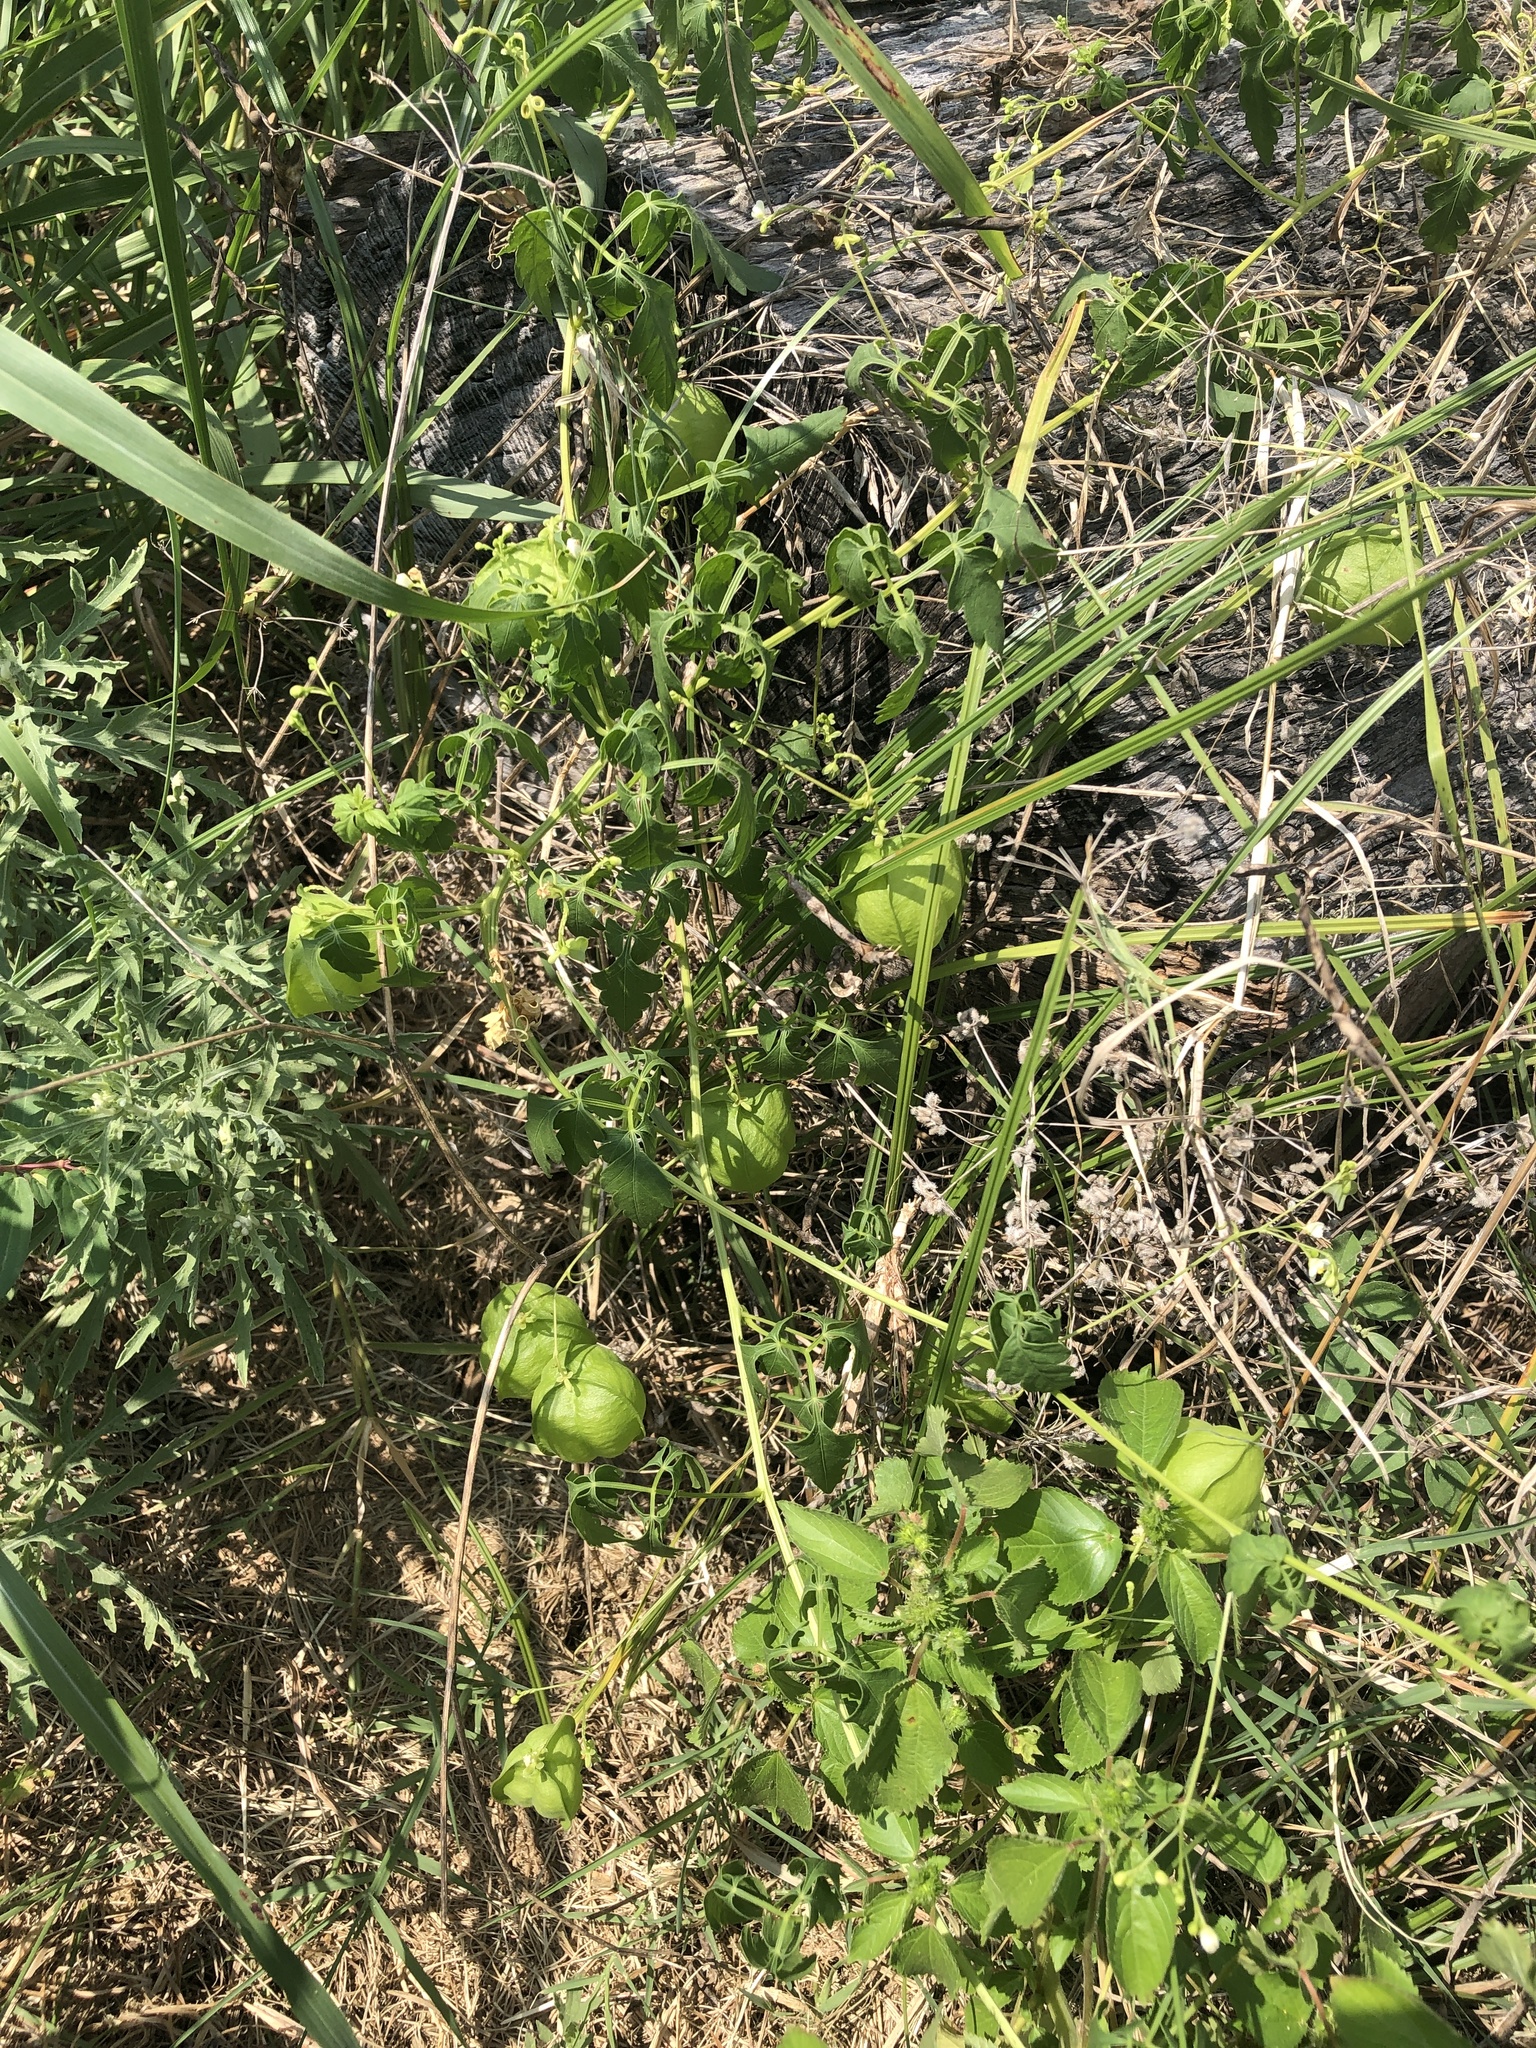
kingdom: Plantae
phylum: Tracheophyta
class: Magnoliopsida
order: Sapindales
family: Sapindaceae
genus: Cardiospermum
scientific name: Cardiospermum halicacabum
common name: Balloon vine
